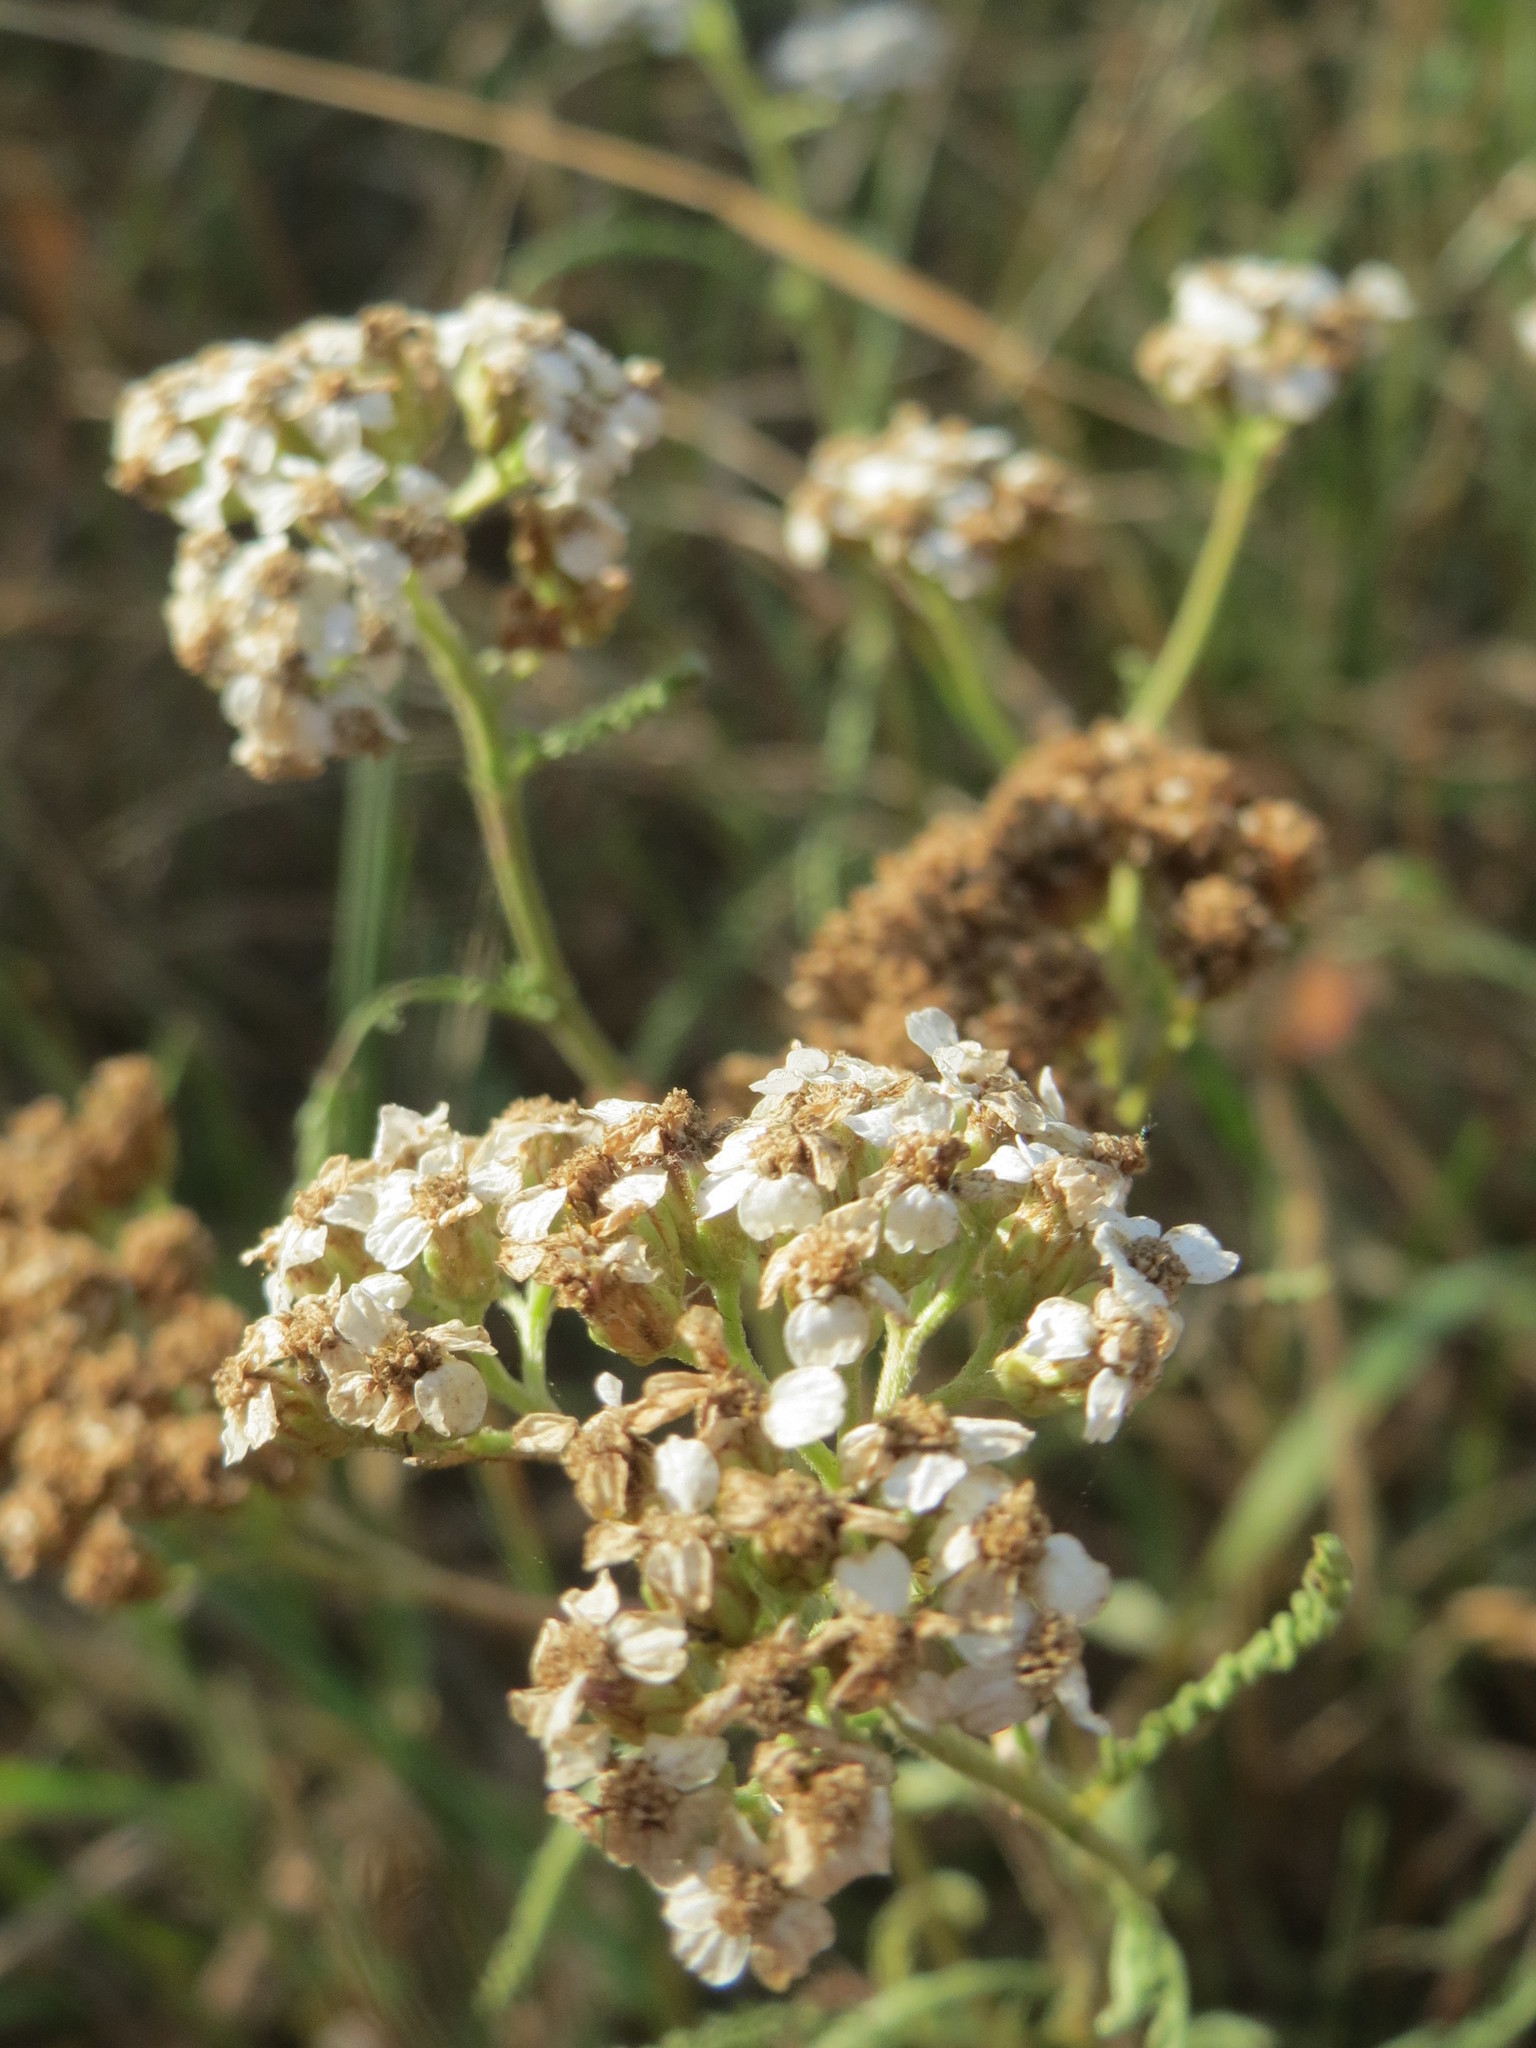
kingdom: Plantae
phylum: Tracheophyta
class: Magnoliopsida
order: Asterales
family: Asteraceae
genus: Achillea
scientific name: Achillea millefolium
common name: Yarrow
